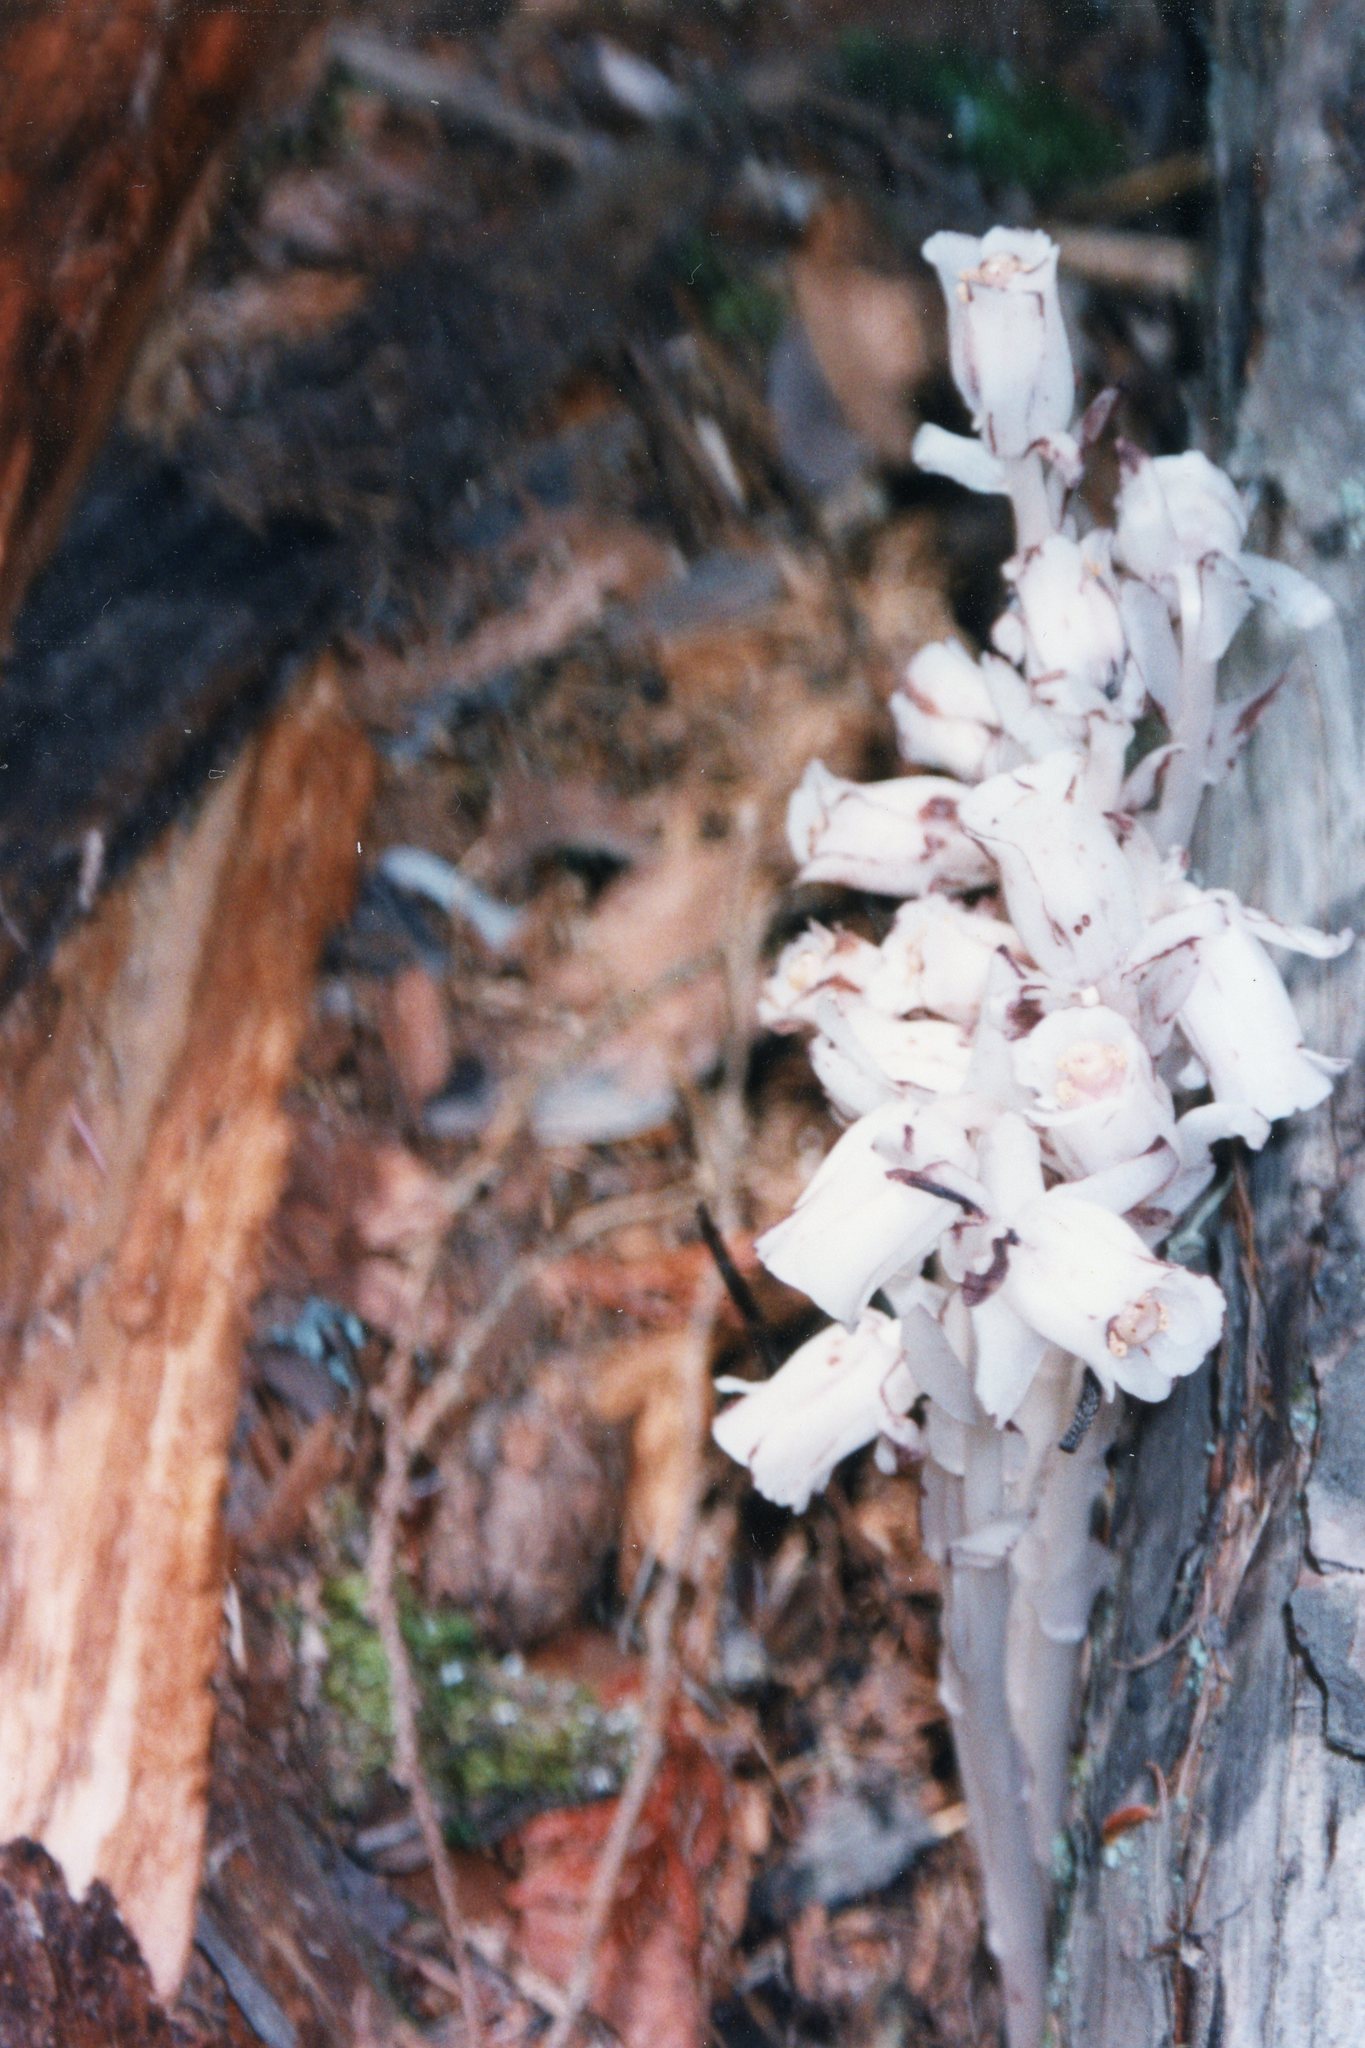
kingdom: Plantae
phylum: Tracheophyta
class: Magnoliopsida
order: Ericales
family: Ericaceae
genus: Monotropa
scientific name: Monotropa uniflora
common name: Convulsion root
